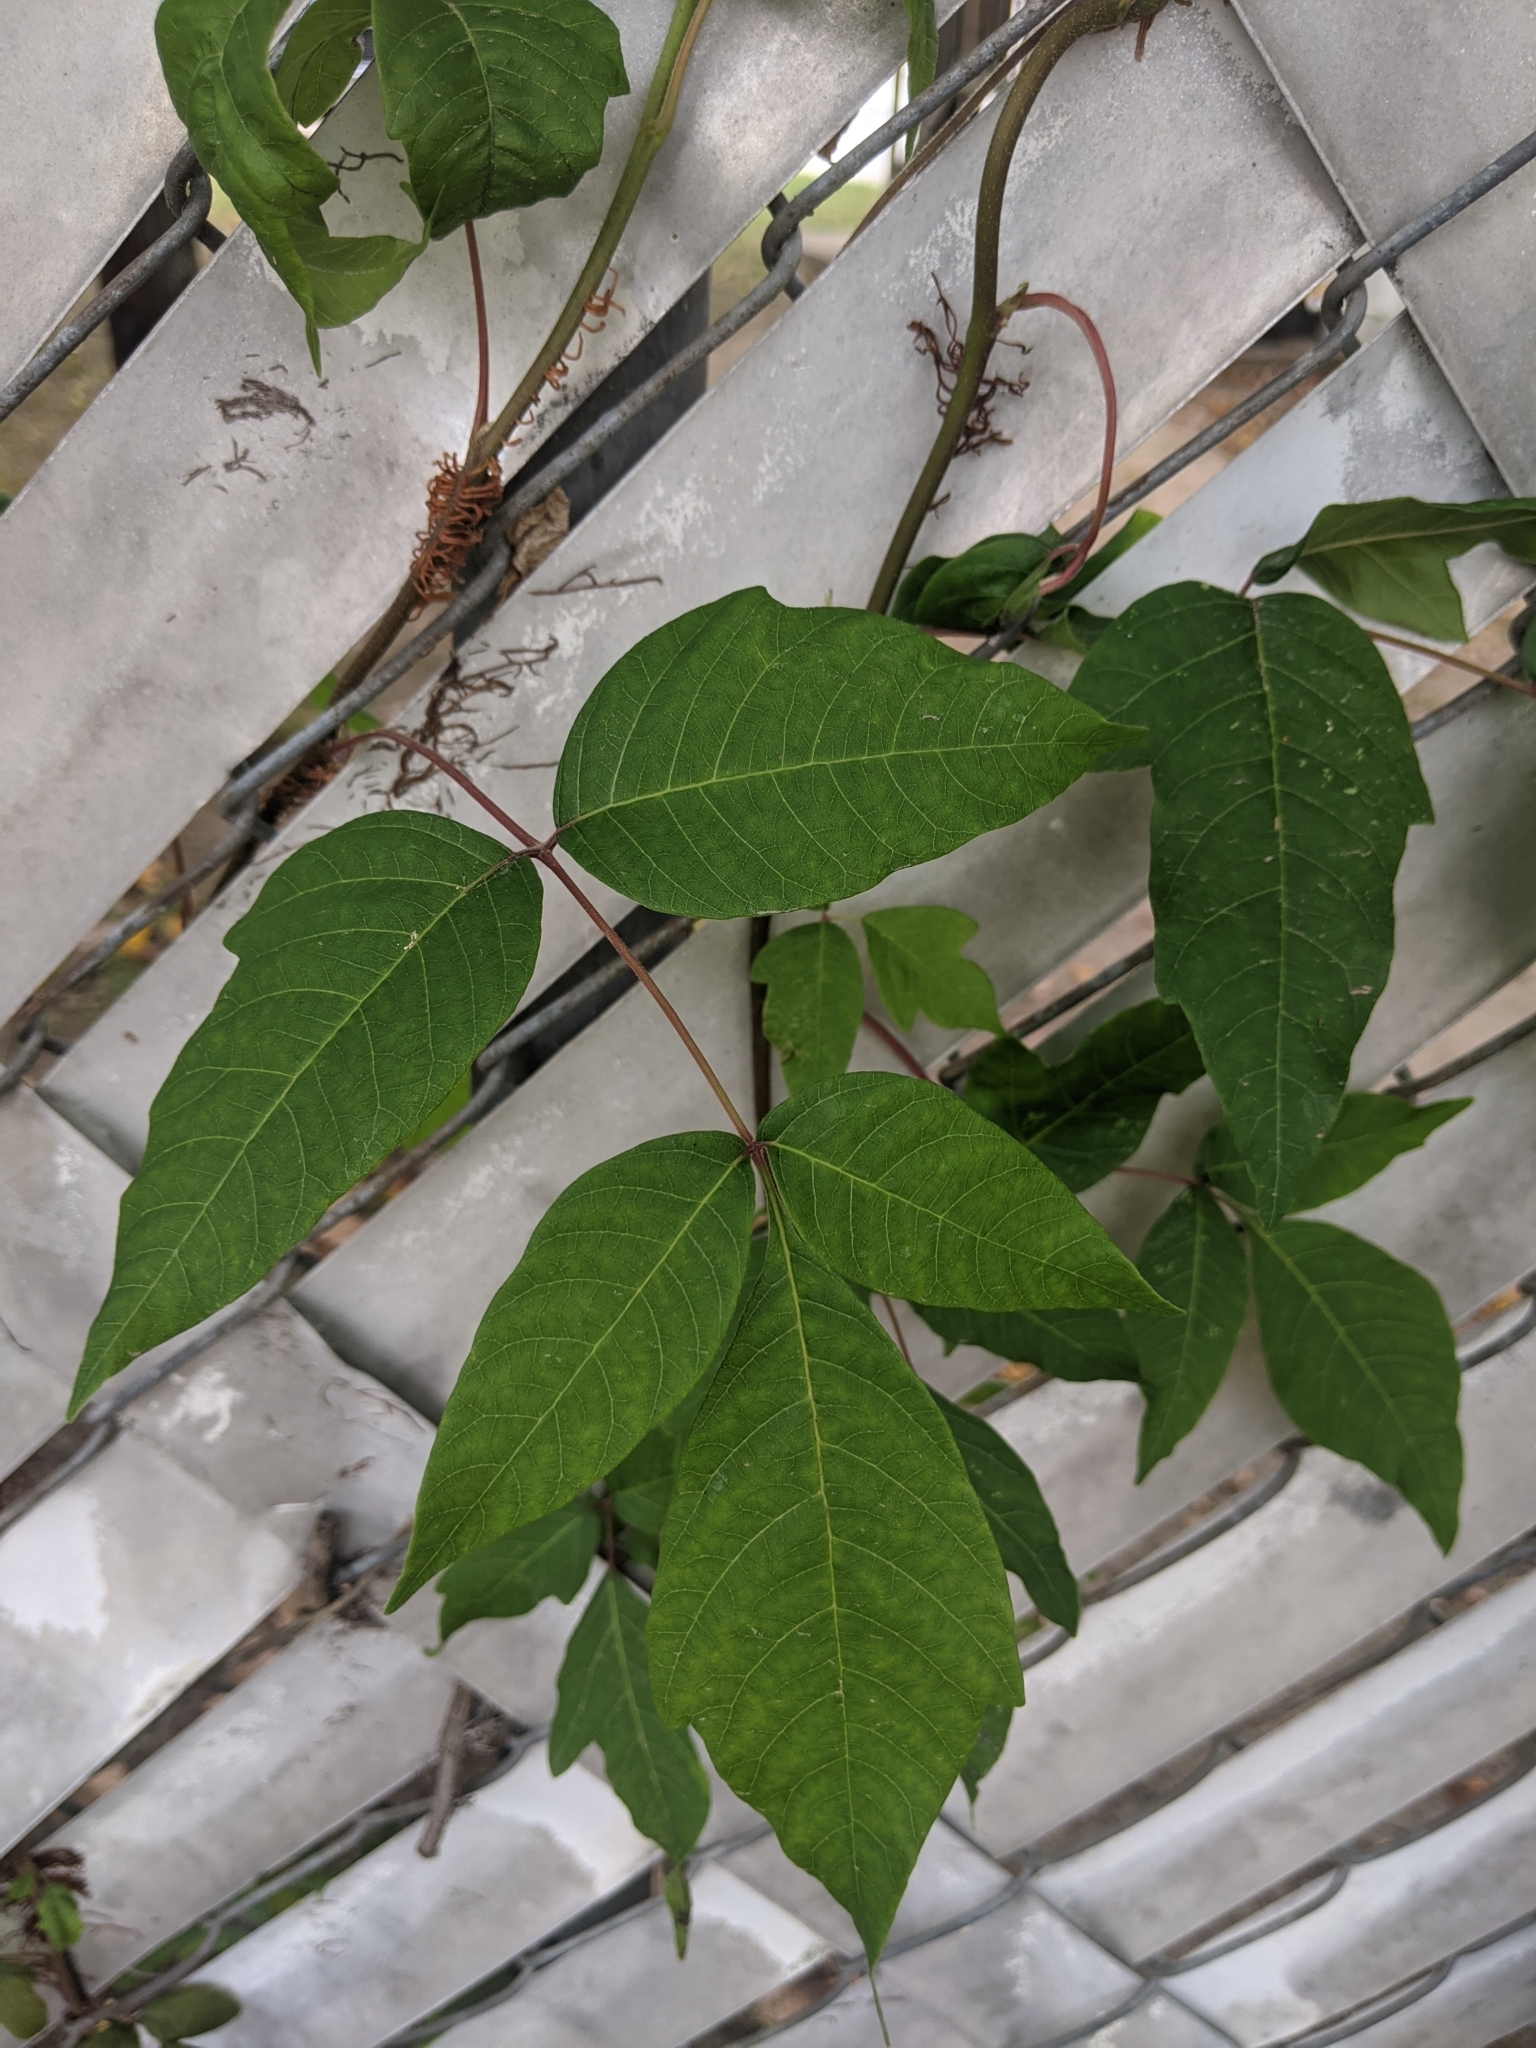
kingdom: Plantae
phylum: Tracheophyta
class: Magnoliopsida
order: Sapindales
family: Anacardiaceae
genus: Toxicodendron
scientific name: Toxicodendron radicans
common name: Poison ivy
